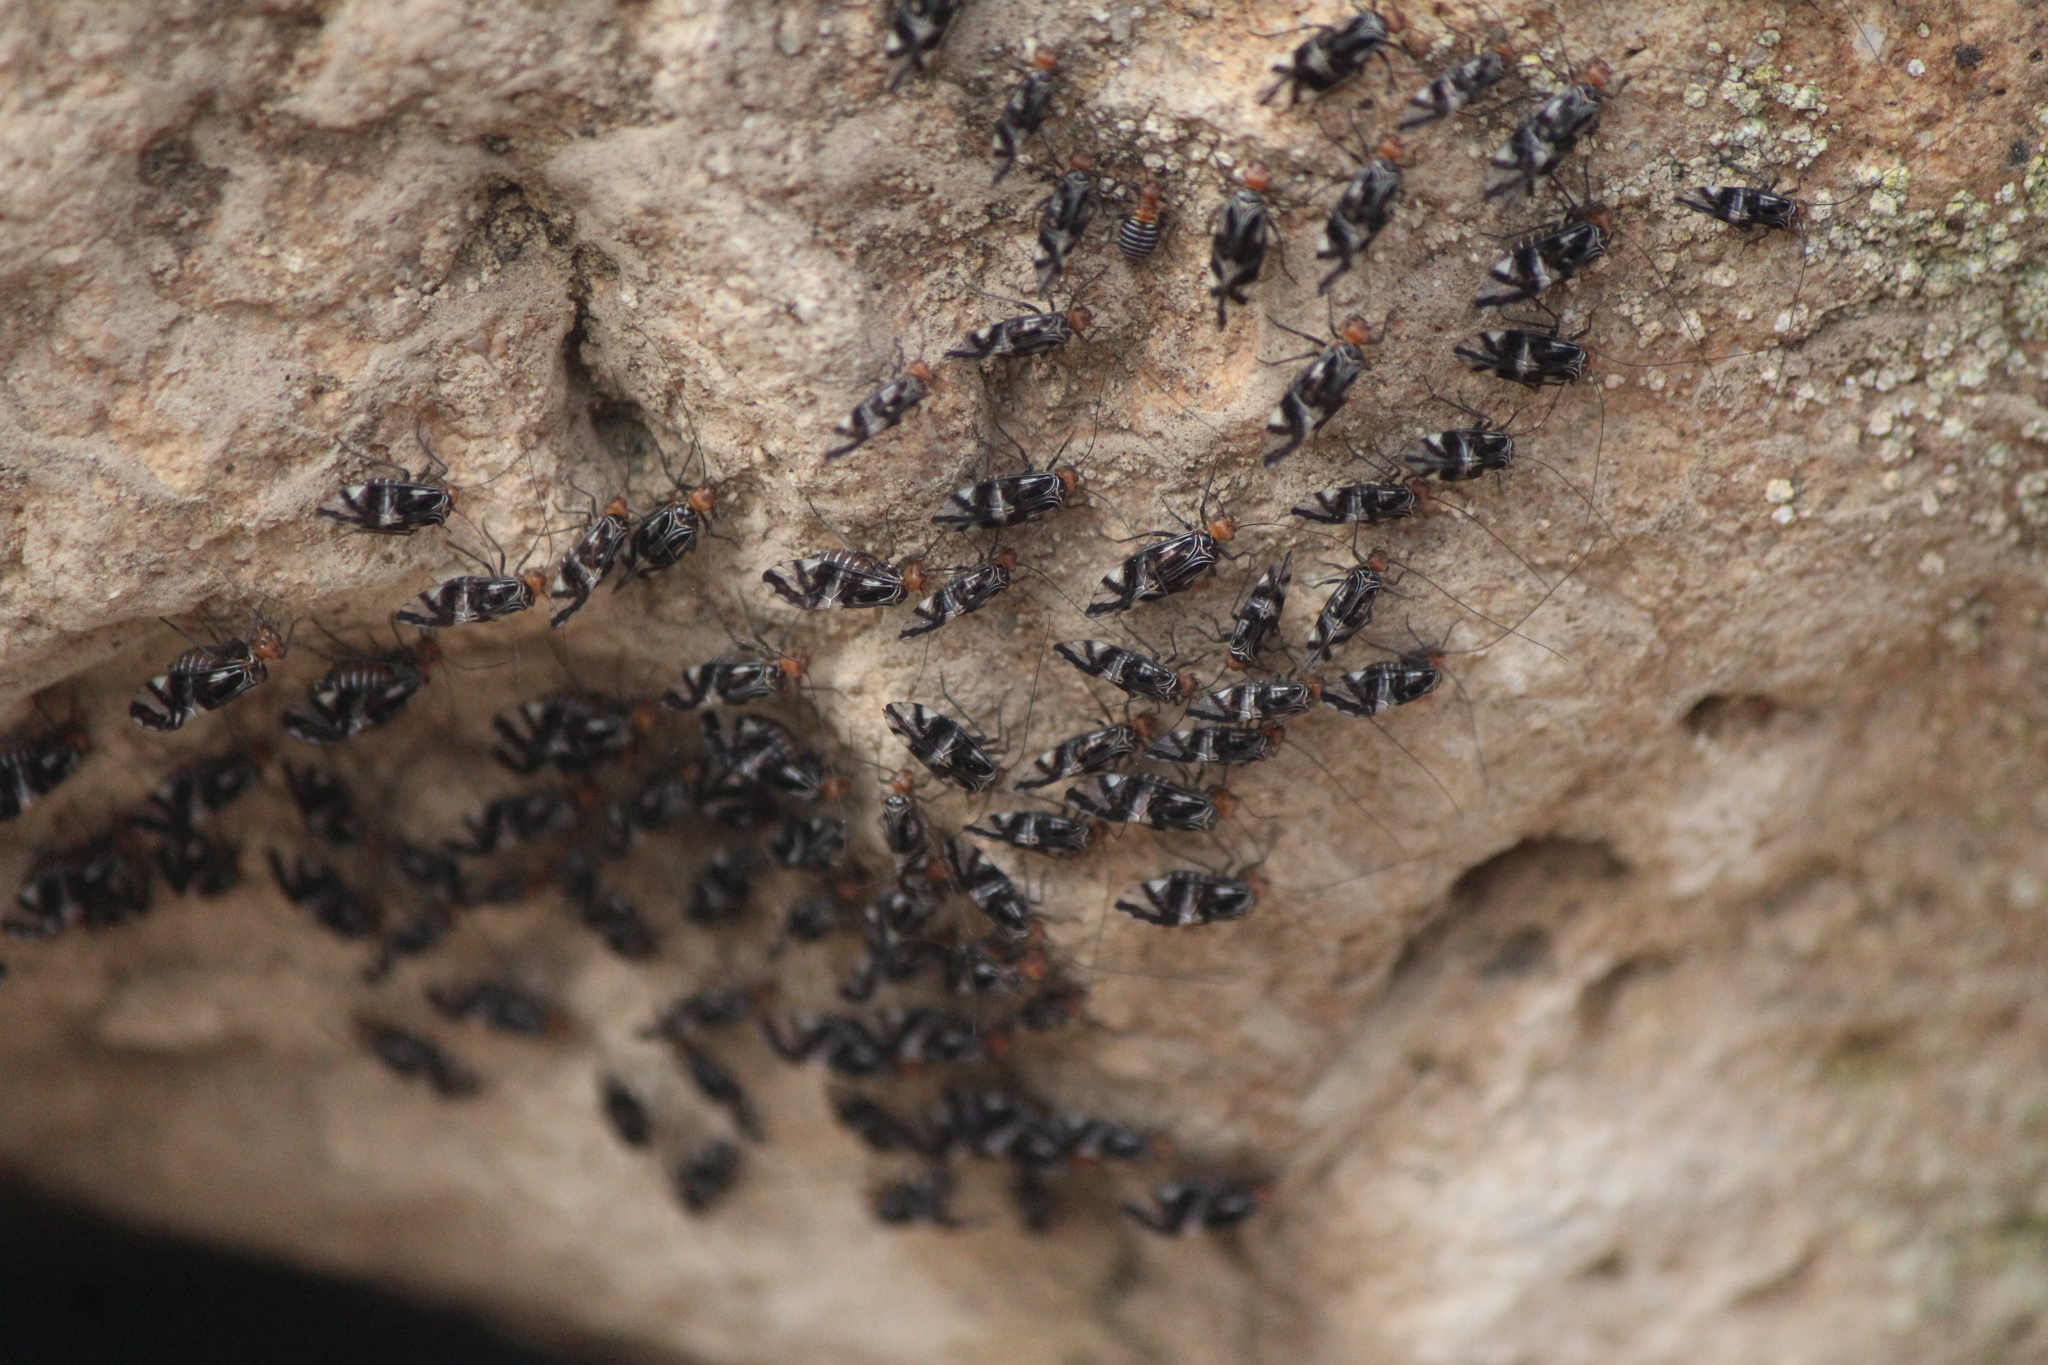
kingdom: Animalia
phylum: Arthropoda
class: Insecta
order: Psocodea
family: Psocidae
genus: Cerastipsocus
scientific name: Cerastipsocus trifasciatus
